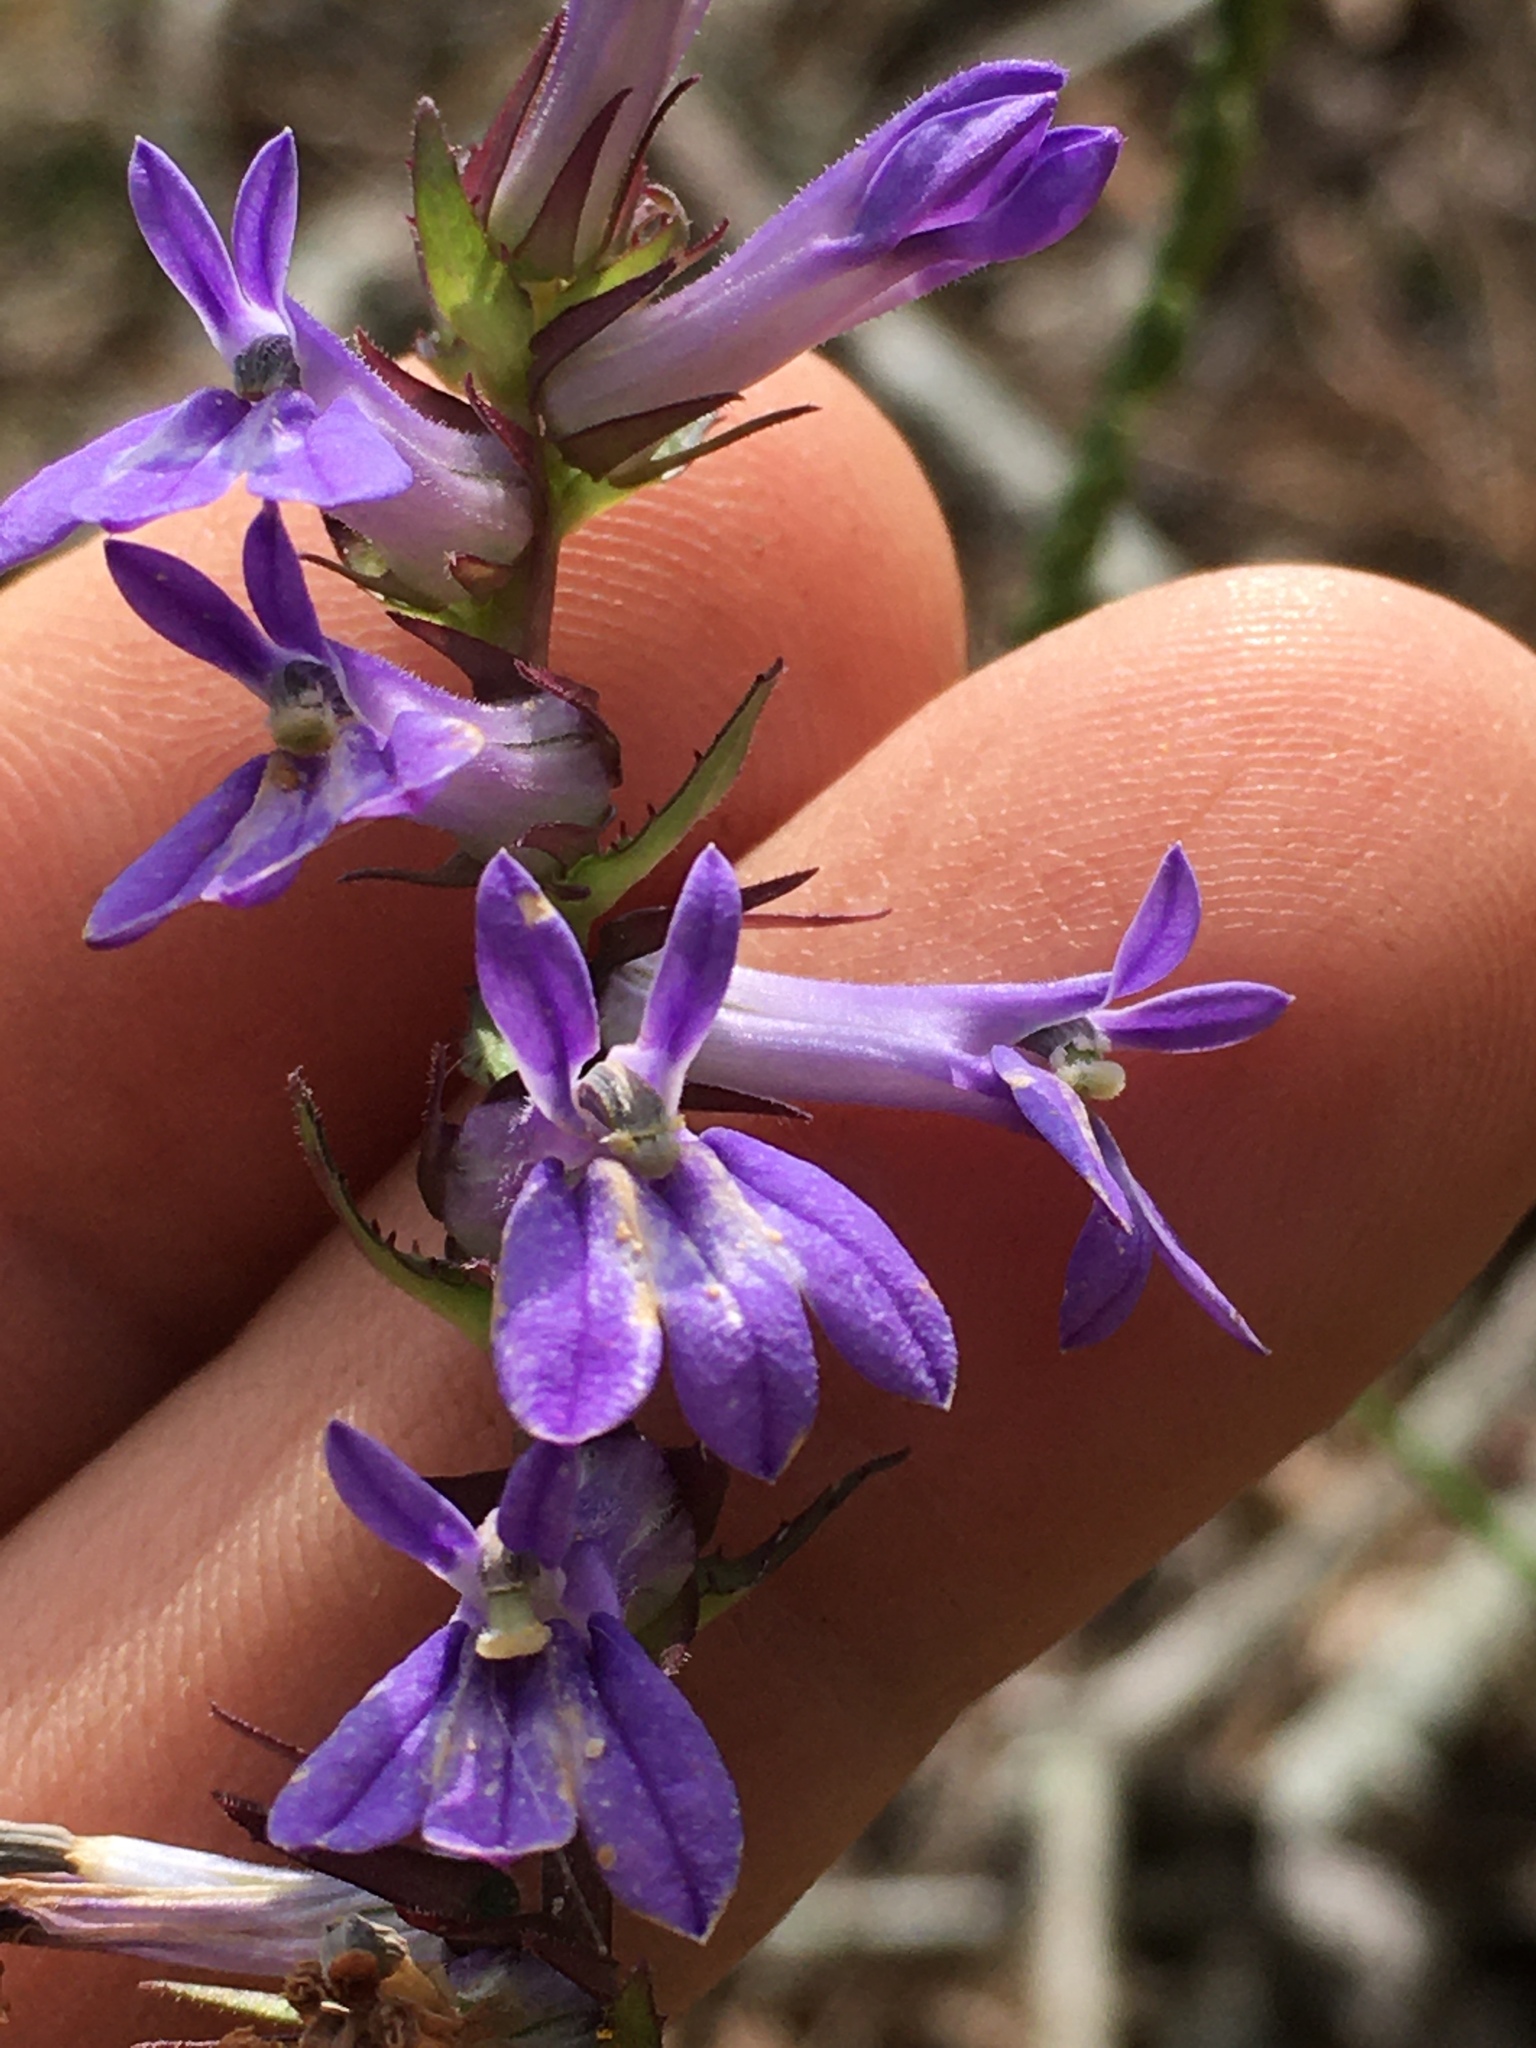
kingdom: Plantae
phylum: Tracheophyta
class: Magnoliopsida
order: Asterales
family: Campanulaceae
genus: Lobelia
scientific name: Lobelia puberula
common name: Purple dewdrop
